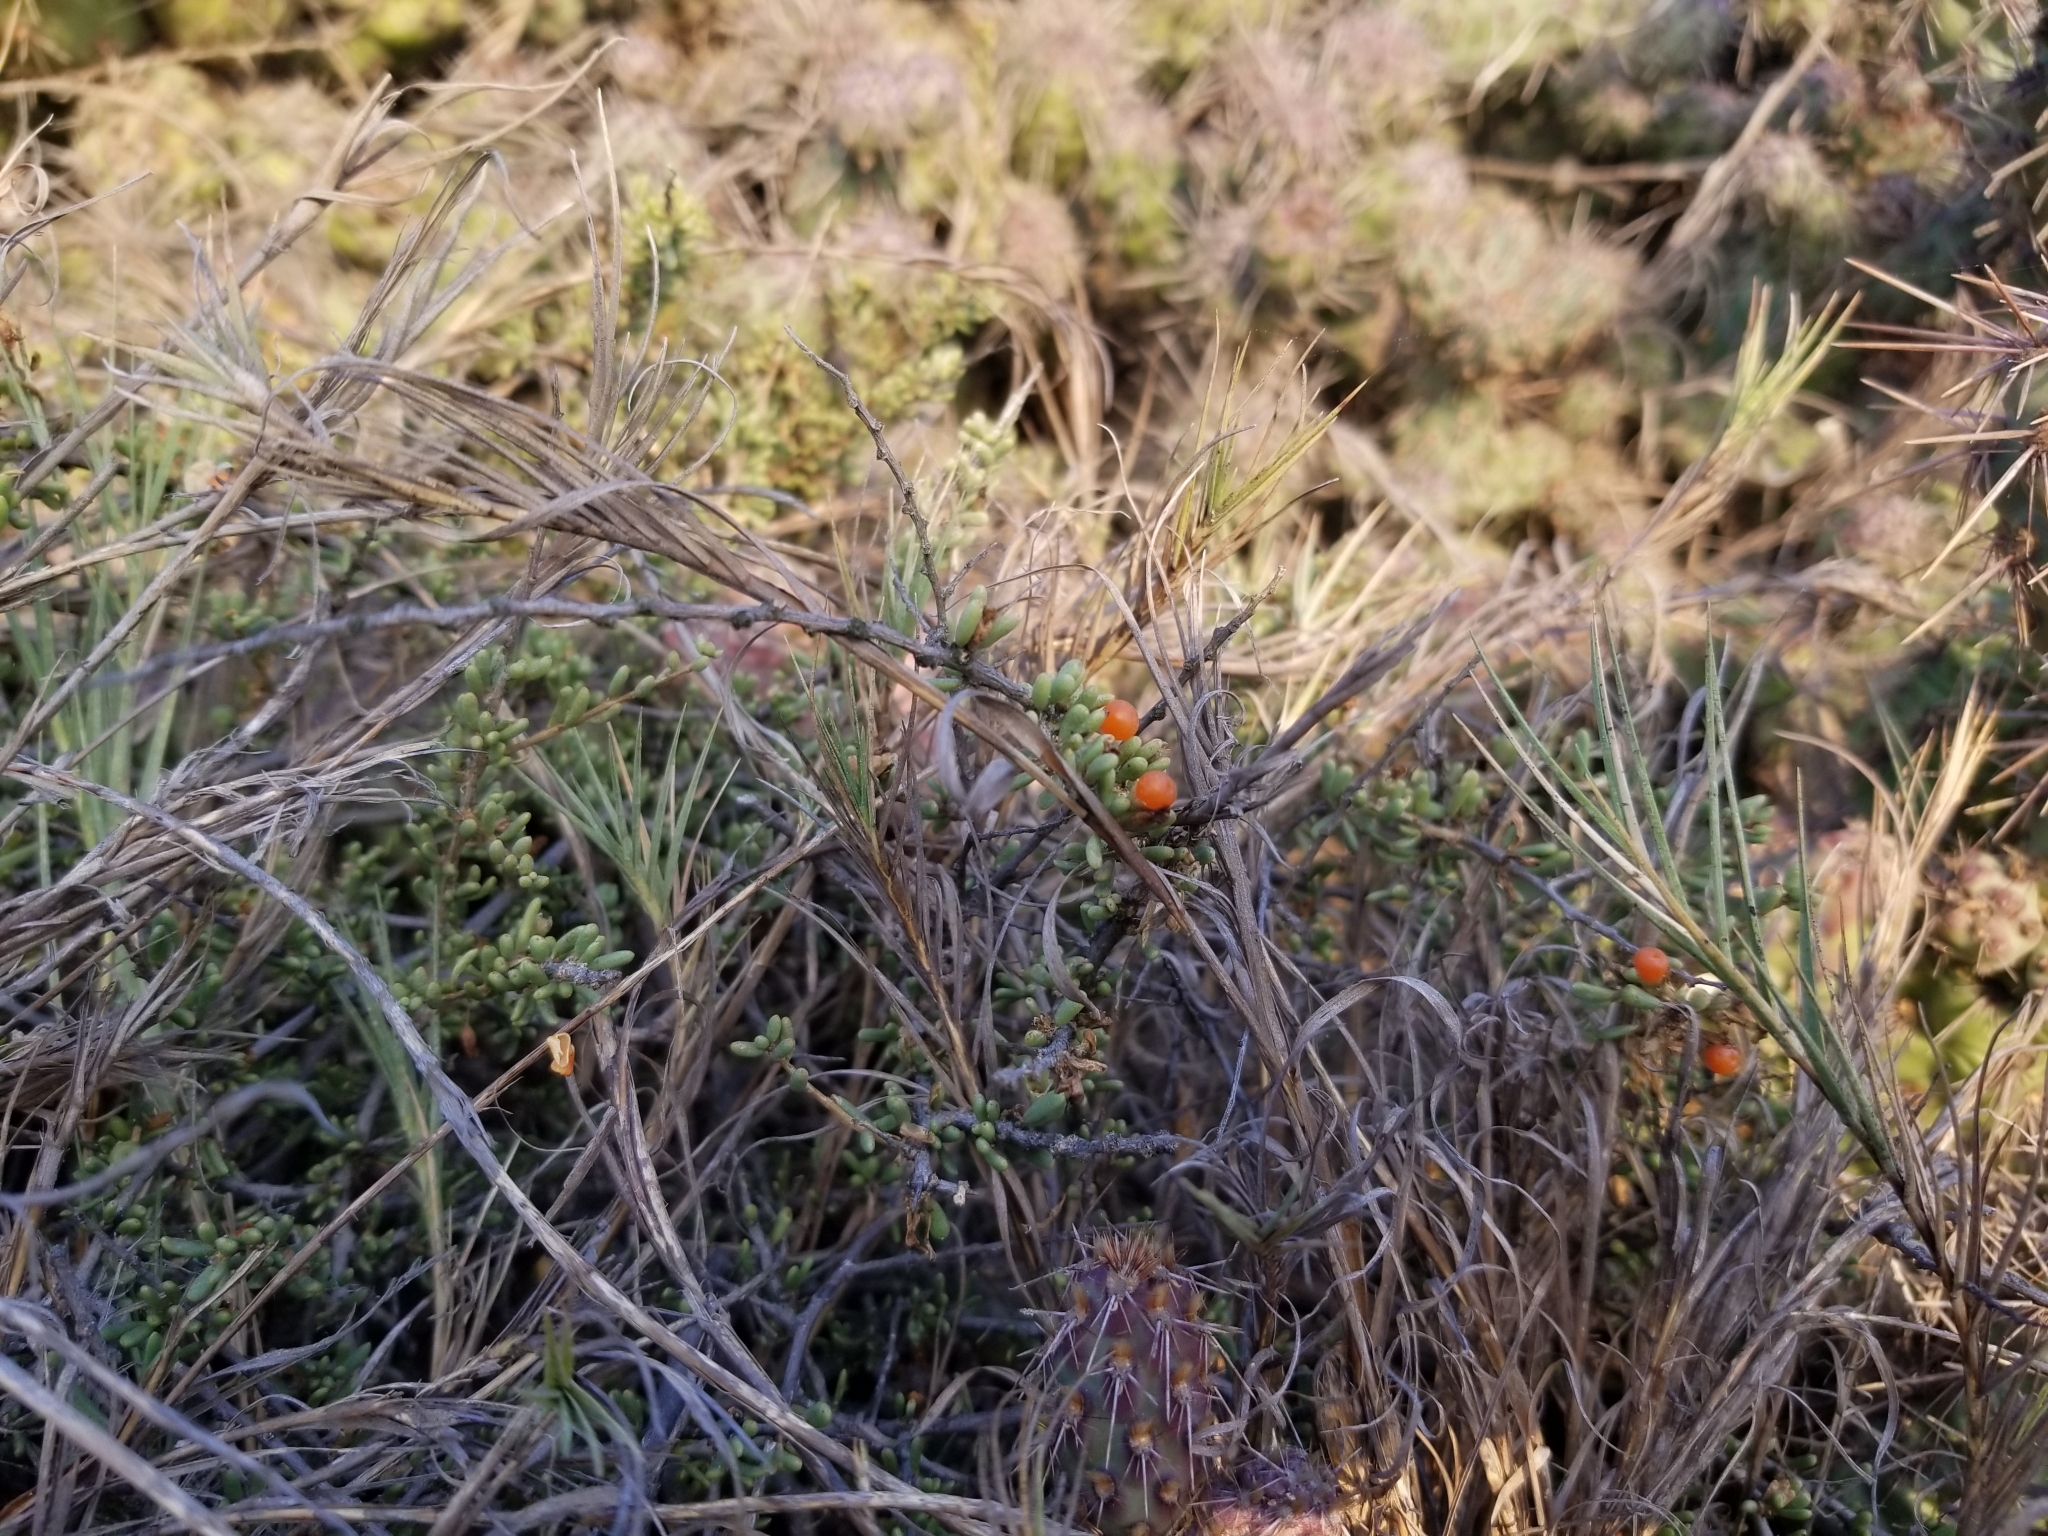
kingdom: Plantae
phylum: Tracheophyta
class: Magnoliopsida
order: Solanales
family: Solanaceae
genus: Lycium
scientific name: Lycium californicum
